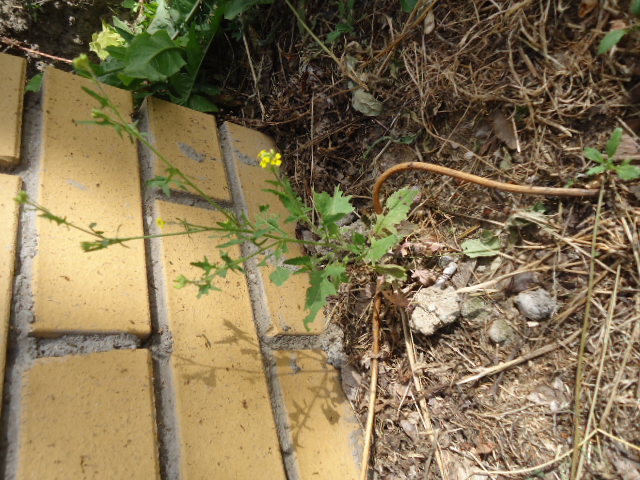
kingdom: Plantae
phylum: Tracheophyta
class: Magnoliopsida
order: Brassicales
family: Brassicaceae
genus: Sisymbrium
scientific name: Sisymbrium loeselii
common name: False london-rocket
